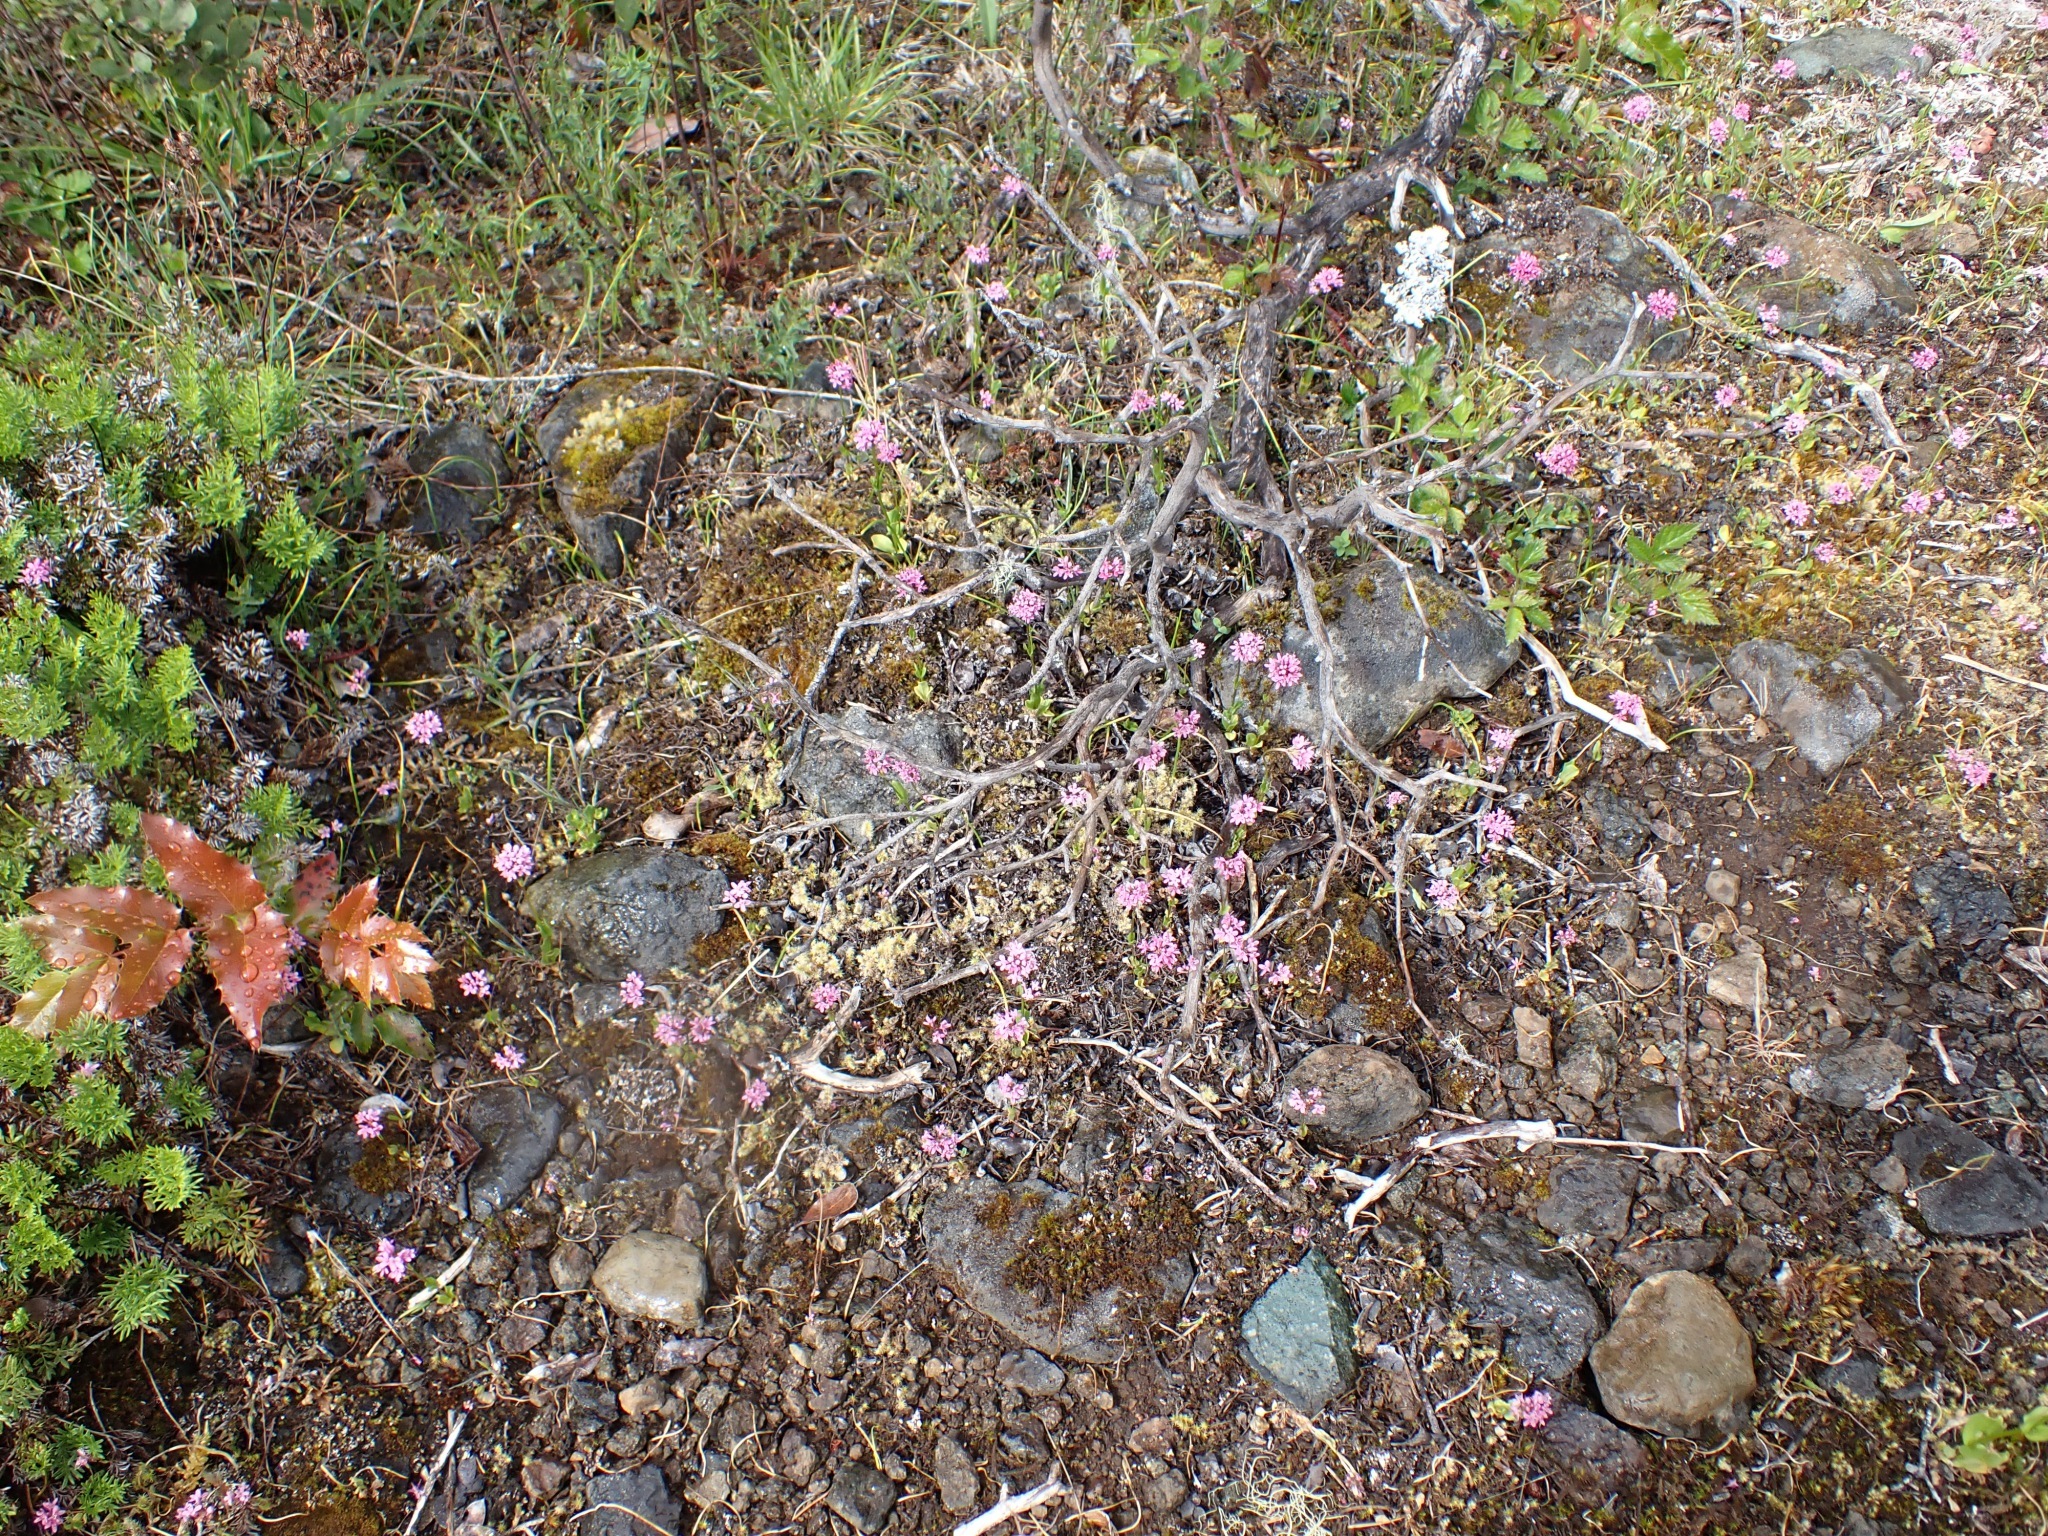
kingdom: Plantae
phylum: Tracheophyta
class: Magnoliopsida
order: Dipsacales
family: Caprifoliaceae
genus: Plectritis
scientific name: Plectritis congesta
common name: Pink plectritis
